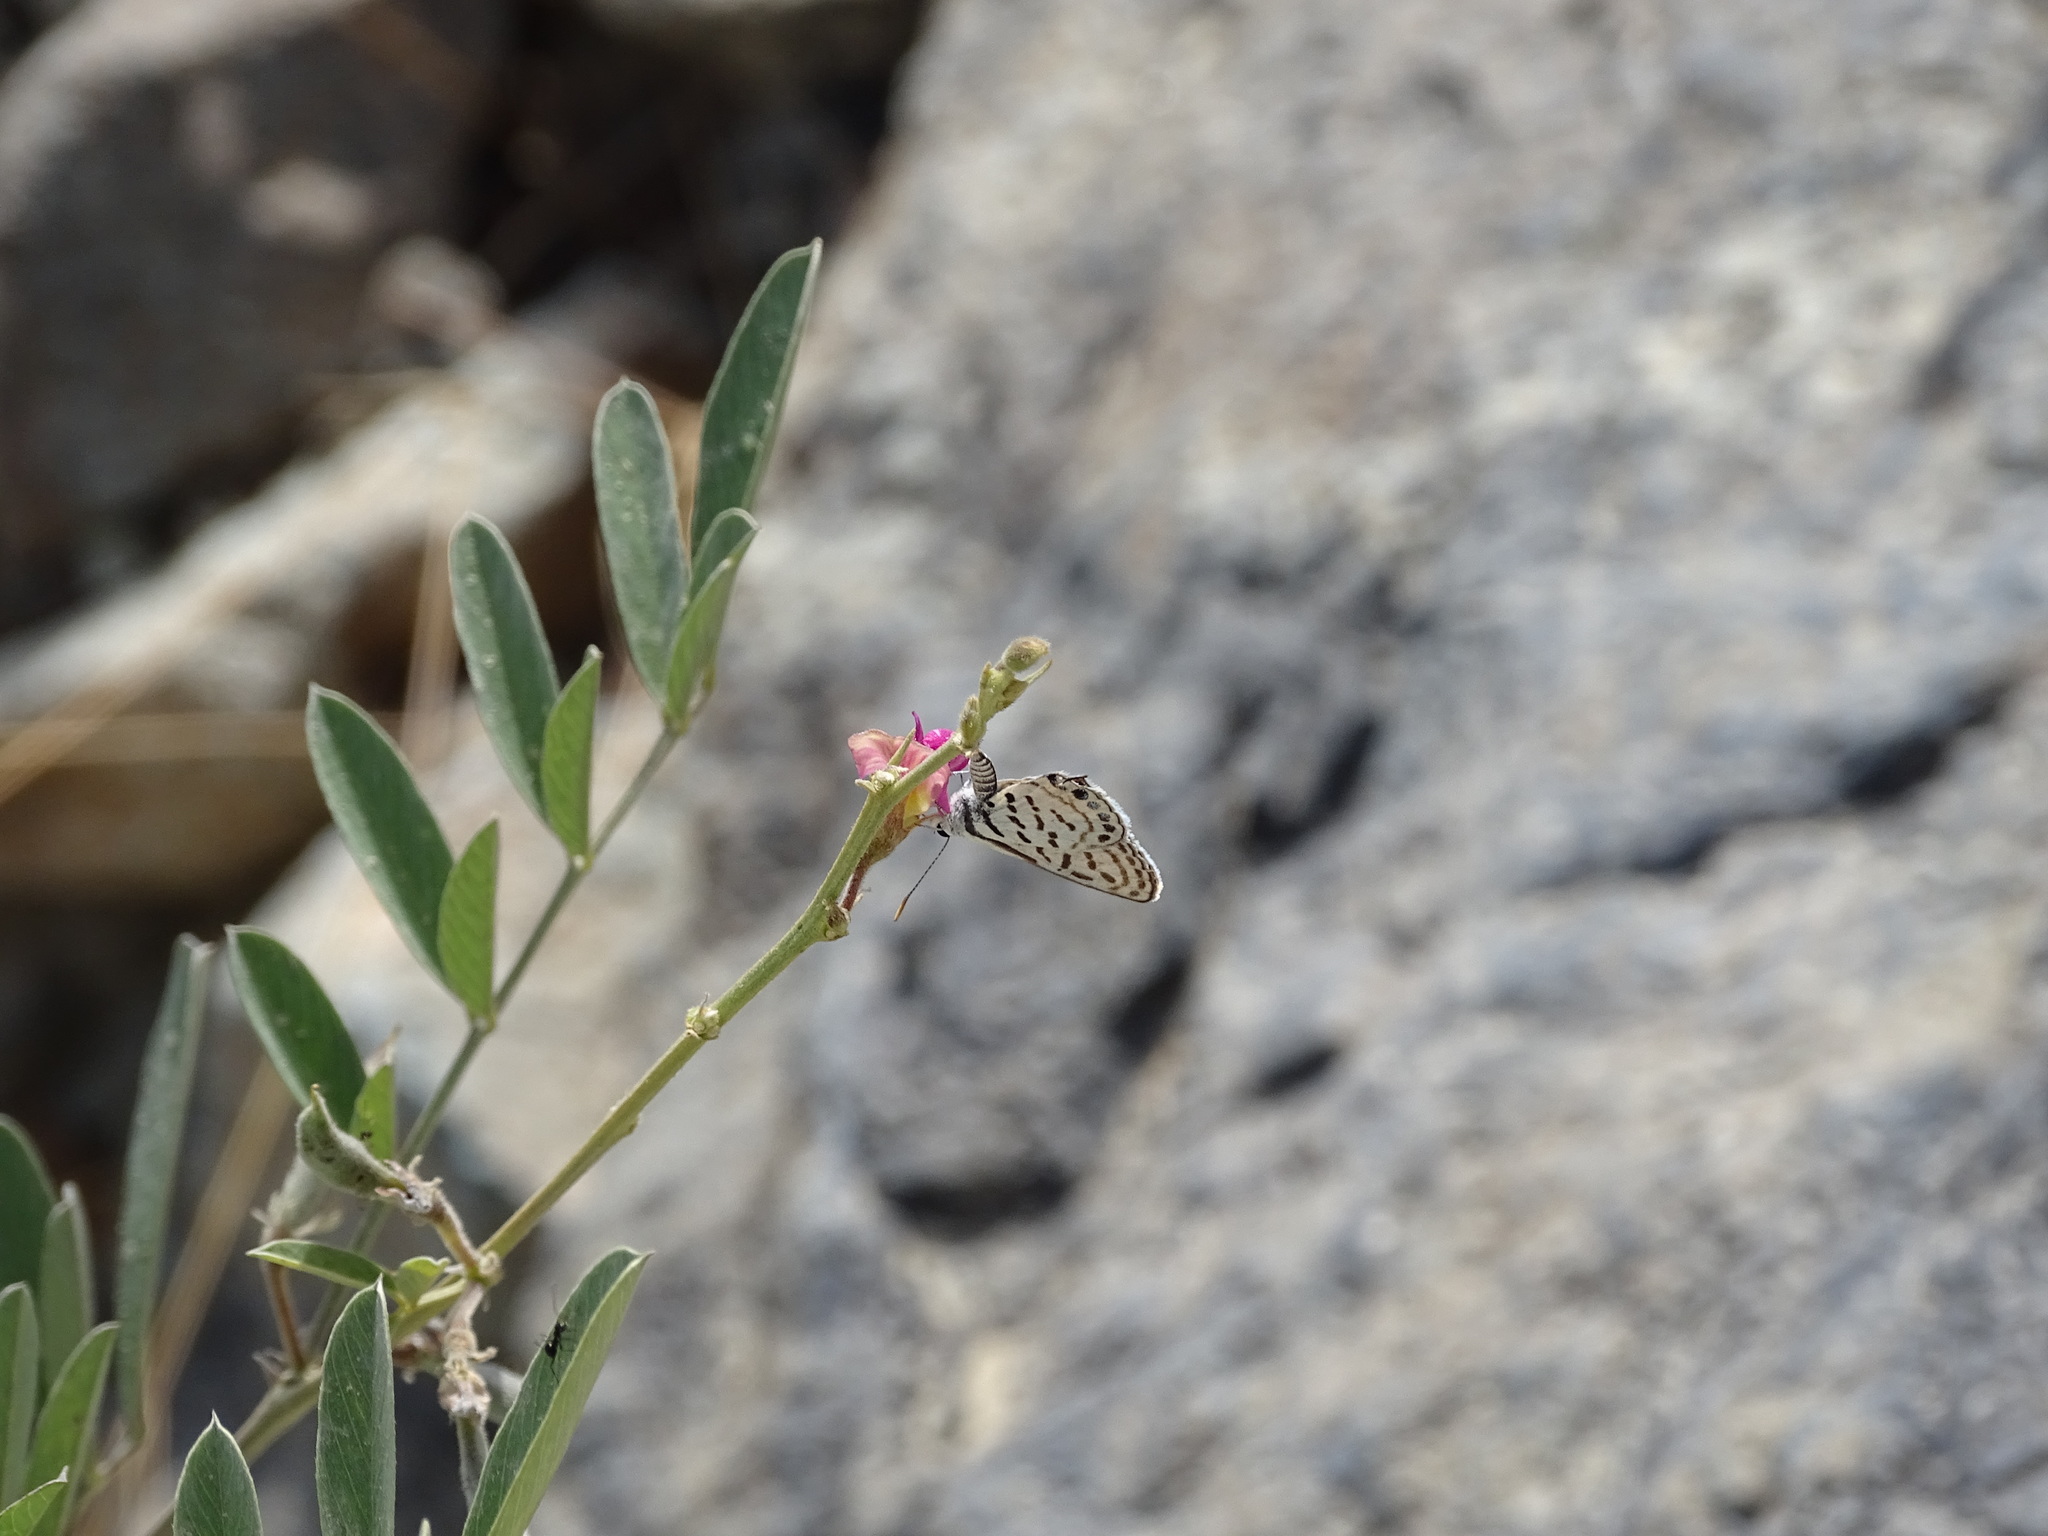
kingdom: Animalia
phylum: Arthropoda
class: Insecta
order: Lepidoptera
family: Lycaenidae
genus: Tarucus
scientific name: Tarucus rosacea
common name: Mediterranean pierrot
